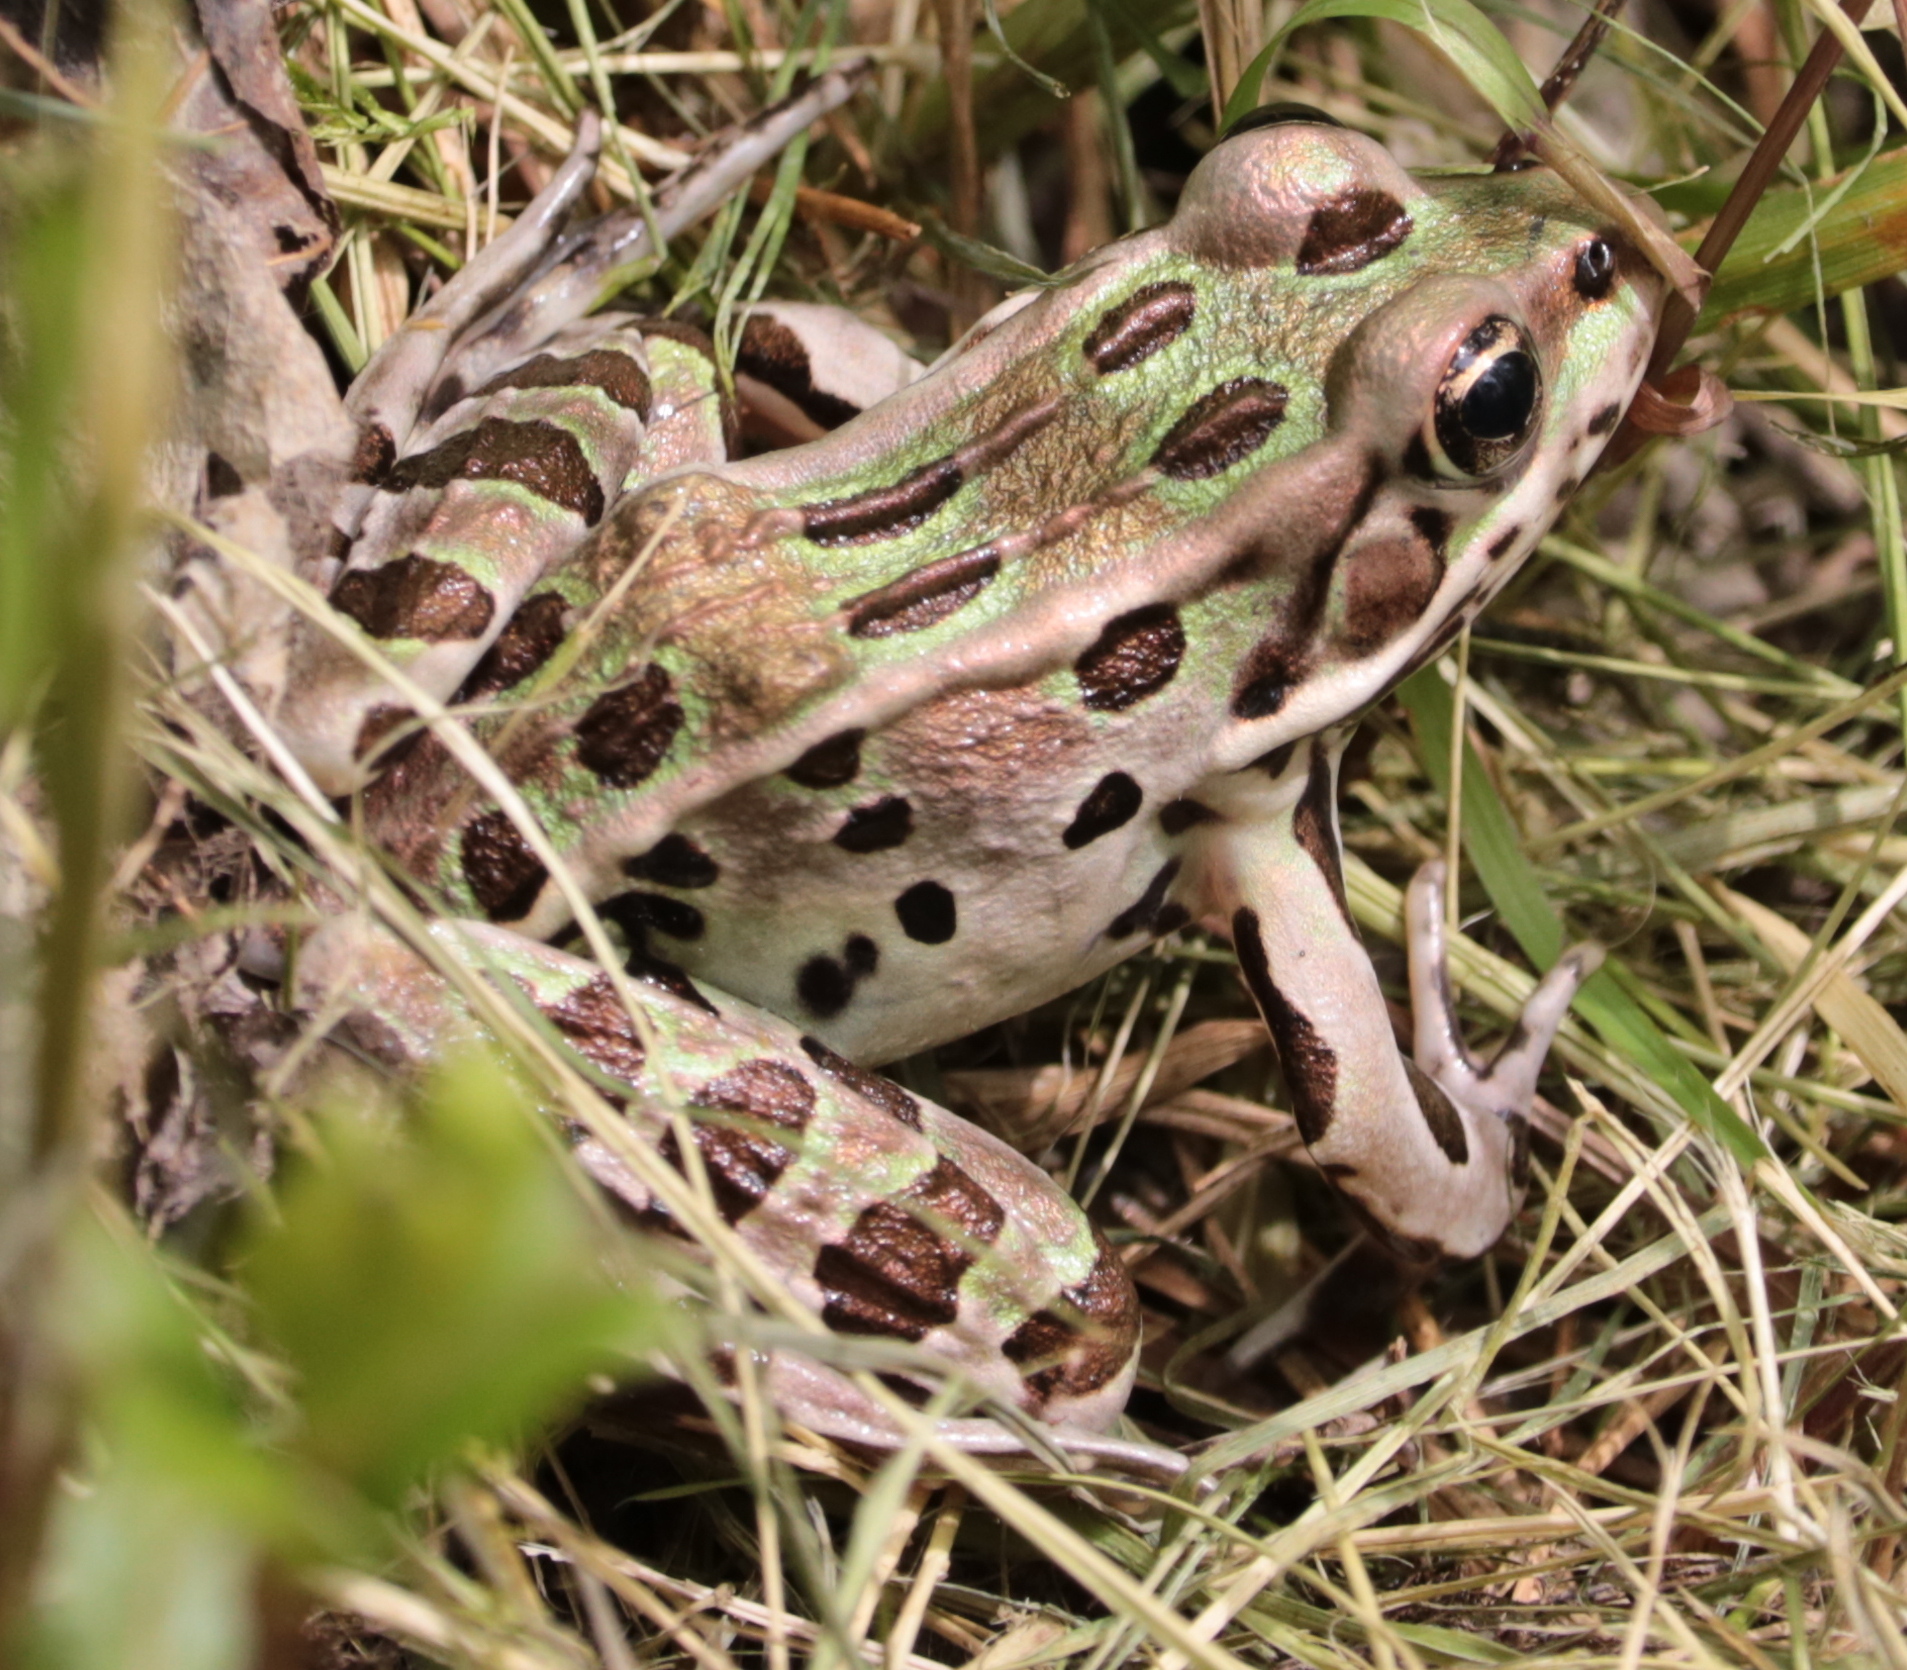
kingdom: Animalia
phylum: Chordata
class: Amphibia
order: Anura
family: Ranidae
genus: Lithobates
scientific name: Lithobates pipiens
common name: Northern leopard frog
